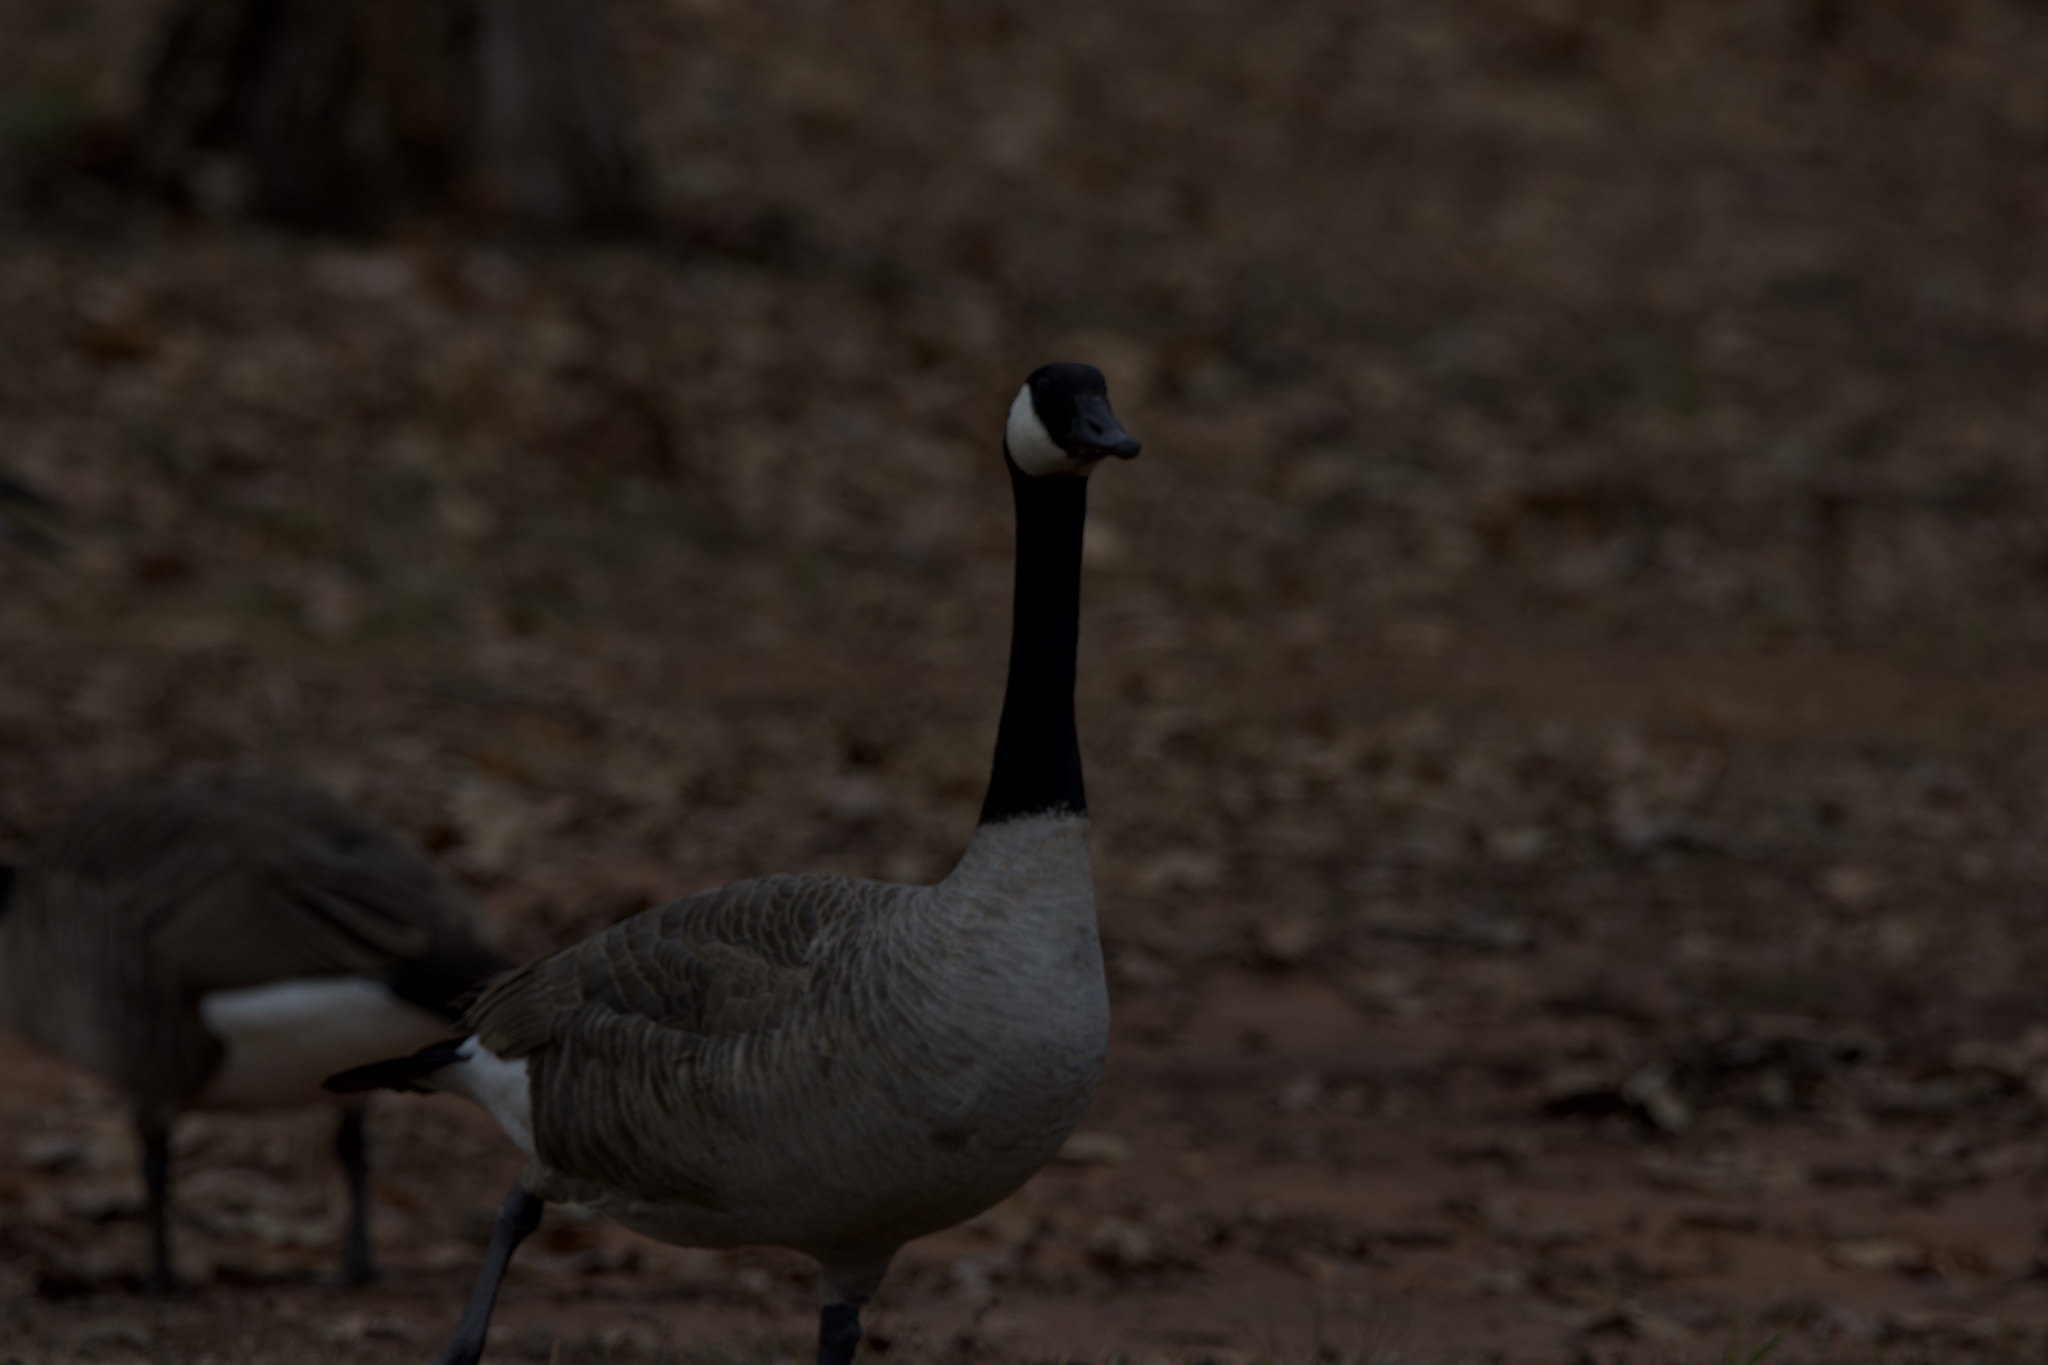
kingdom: Animalia
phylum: Chordata
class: Aves
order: Anseriformes
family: Anatidae
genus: Branta
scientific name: Branta canadensis
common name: Canada goose
